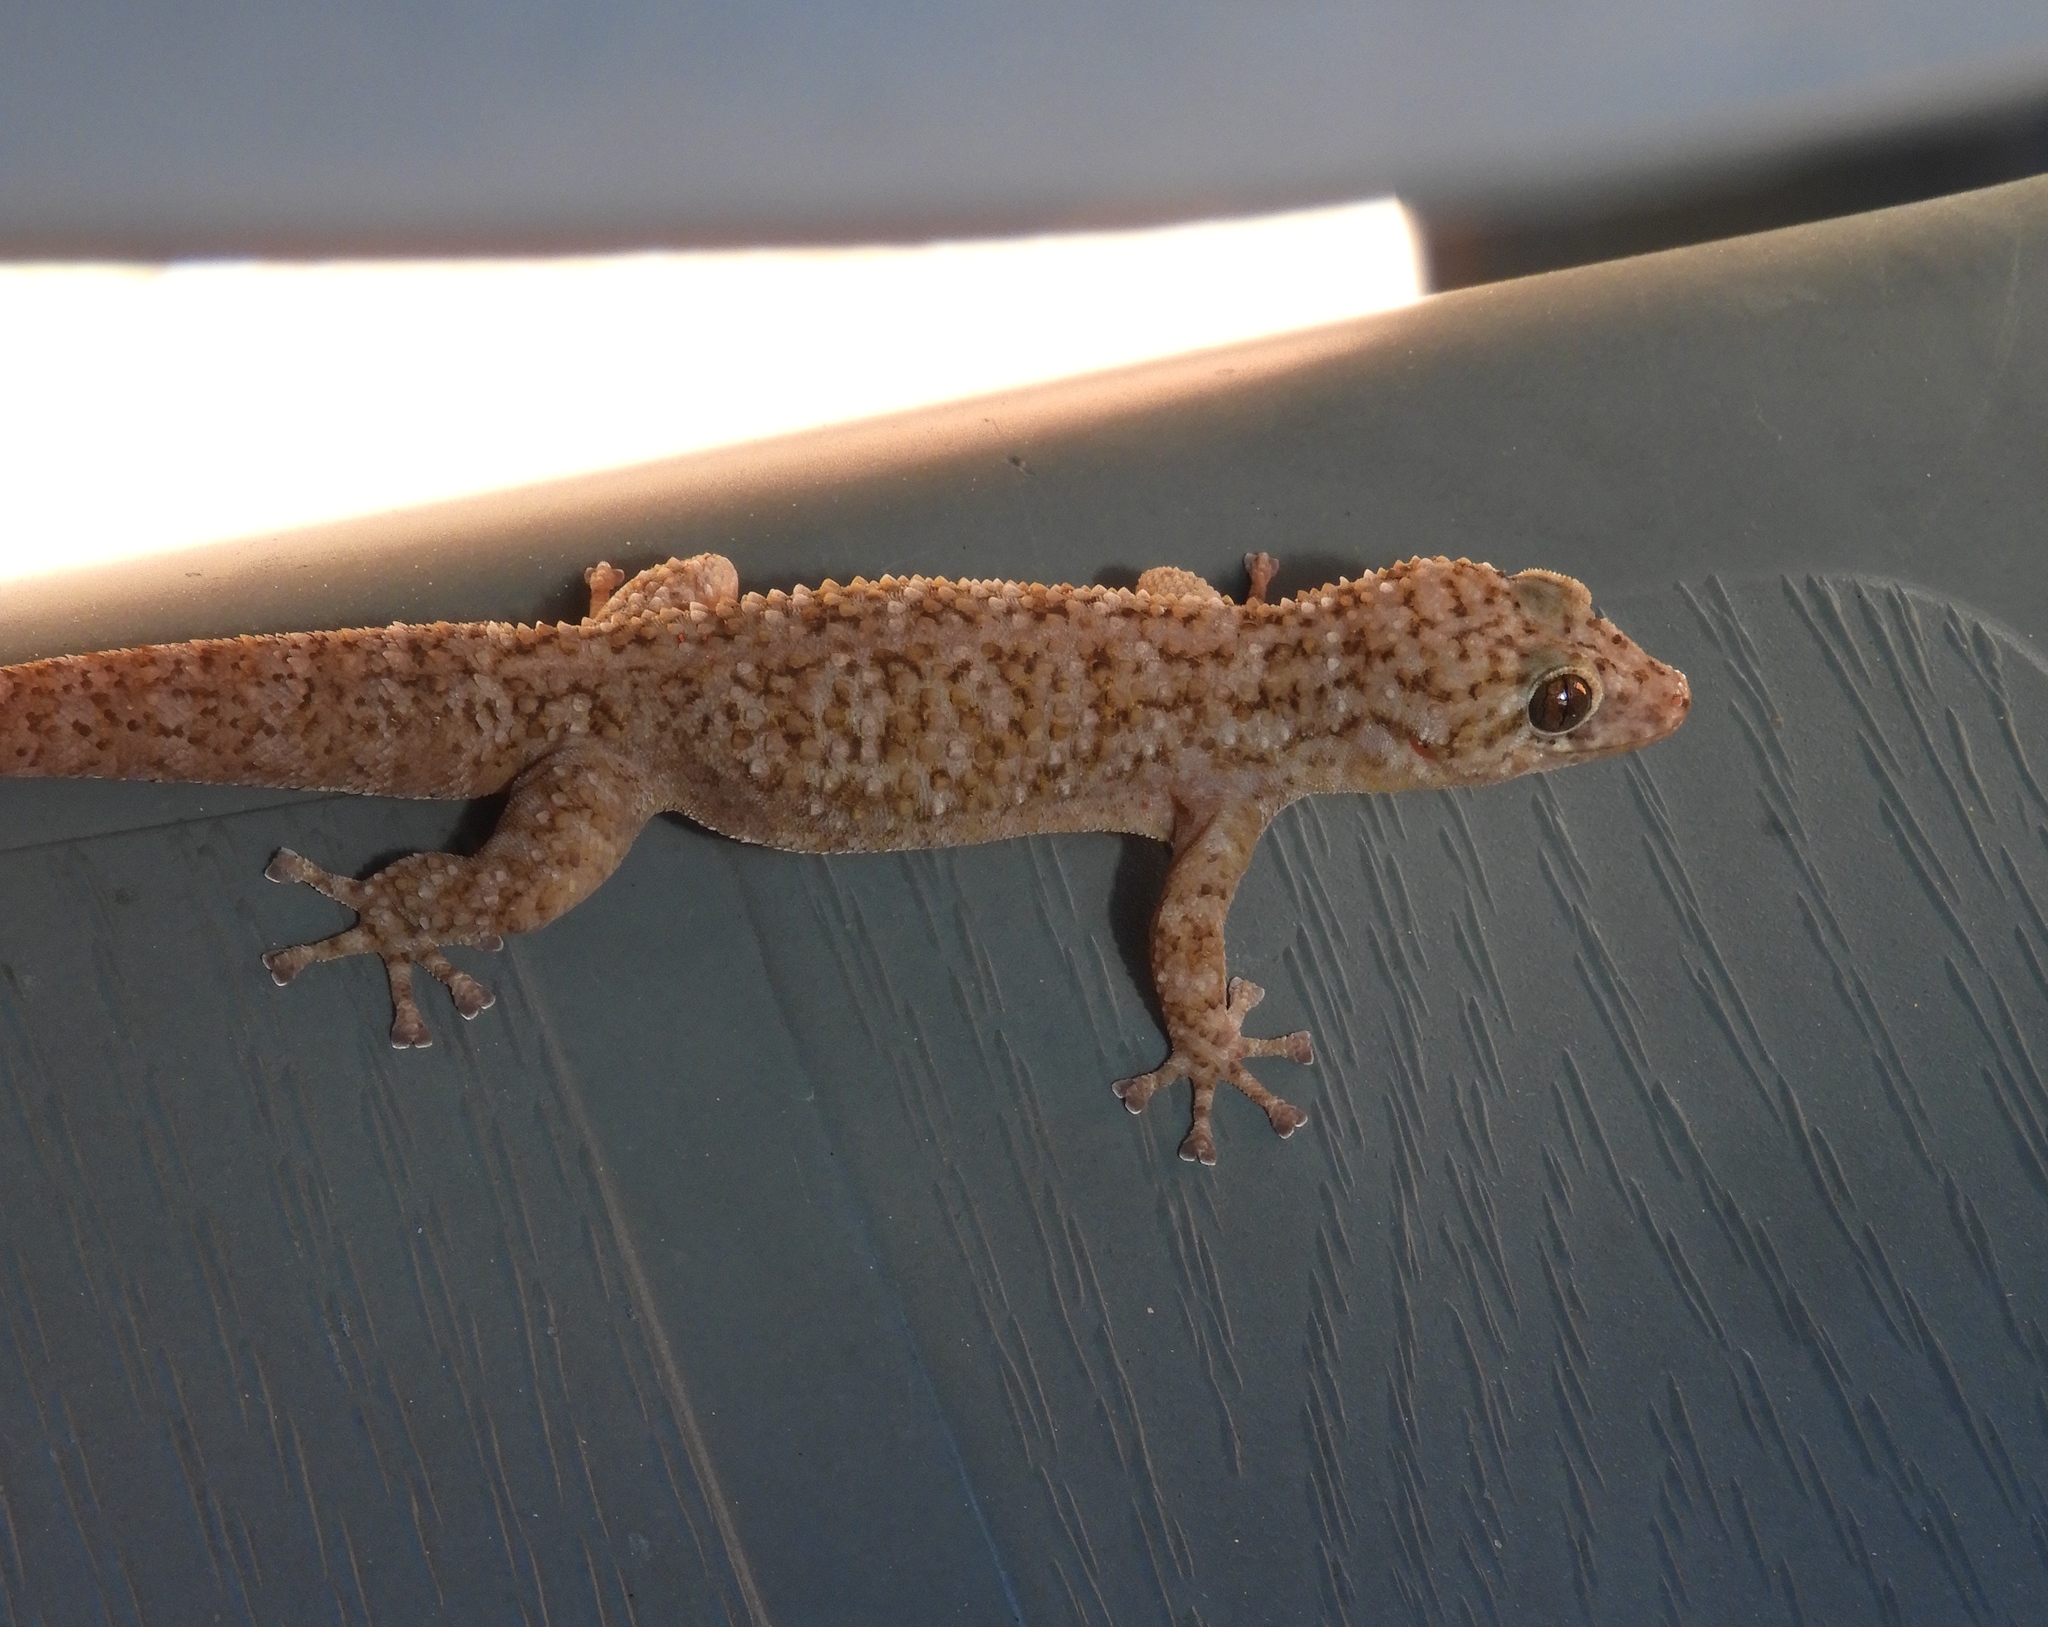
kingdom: Animalia
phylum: Chordata
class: Squamata
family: Phyllodactylidae
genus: Phyllodactylus
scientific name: Phyllodactylus
